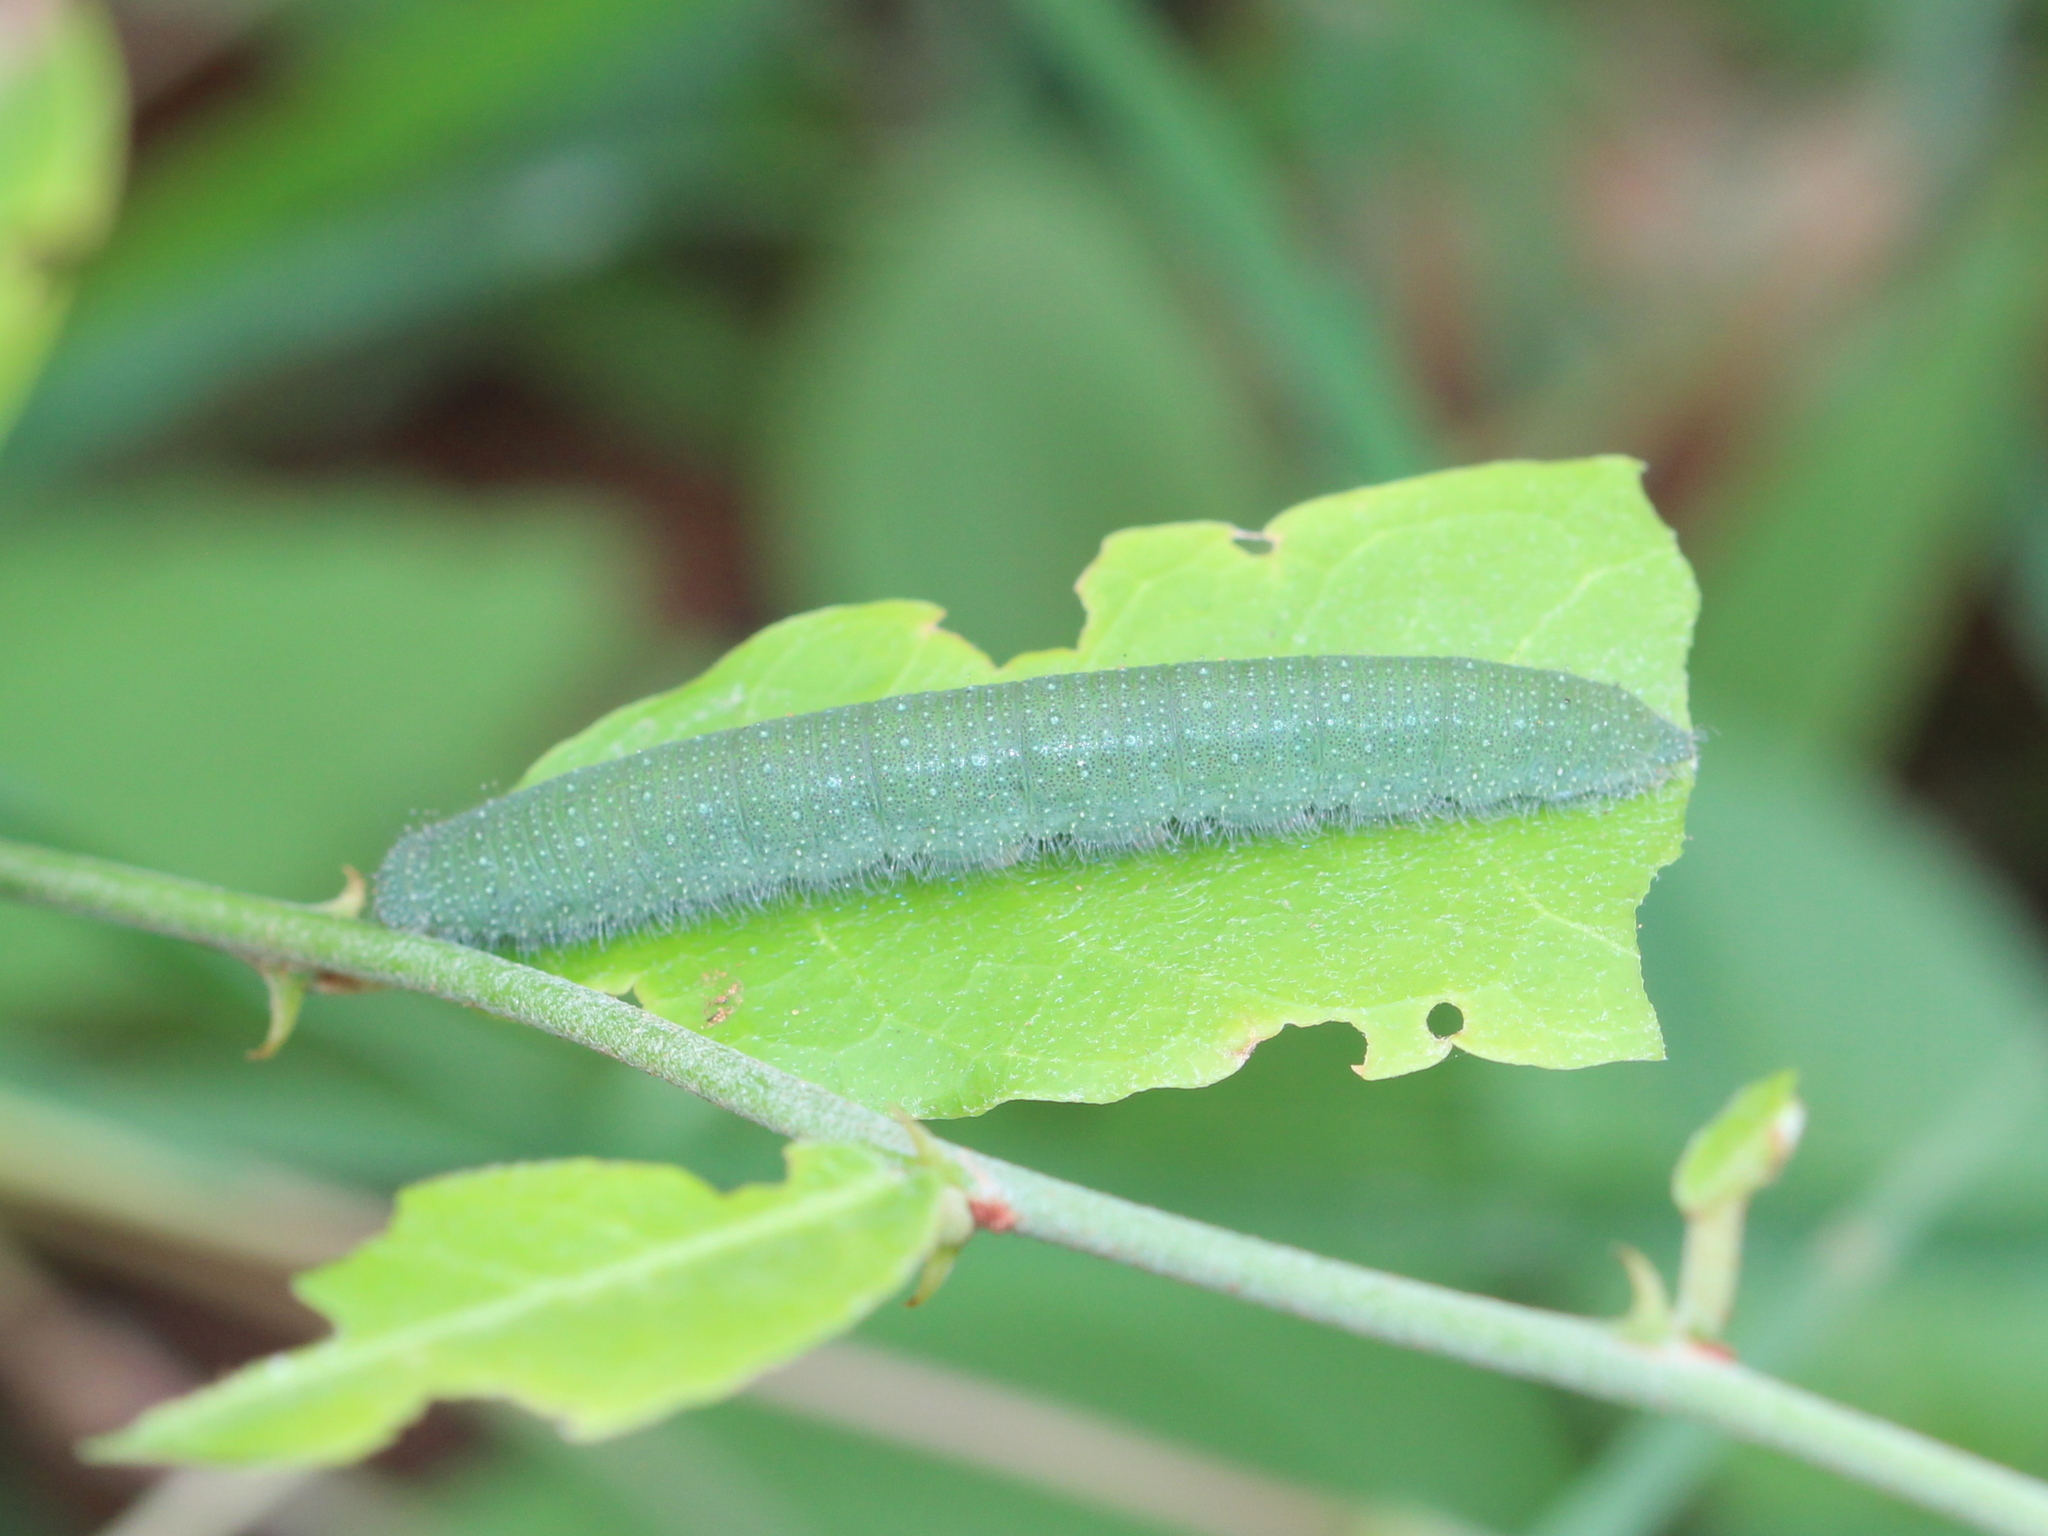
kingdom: Animalia
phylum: Arthropoda
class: Insecta
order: Lepidoptera
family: Pieridae
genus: Cepora
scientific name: Cepora nerissa
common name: Common gull
